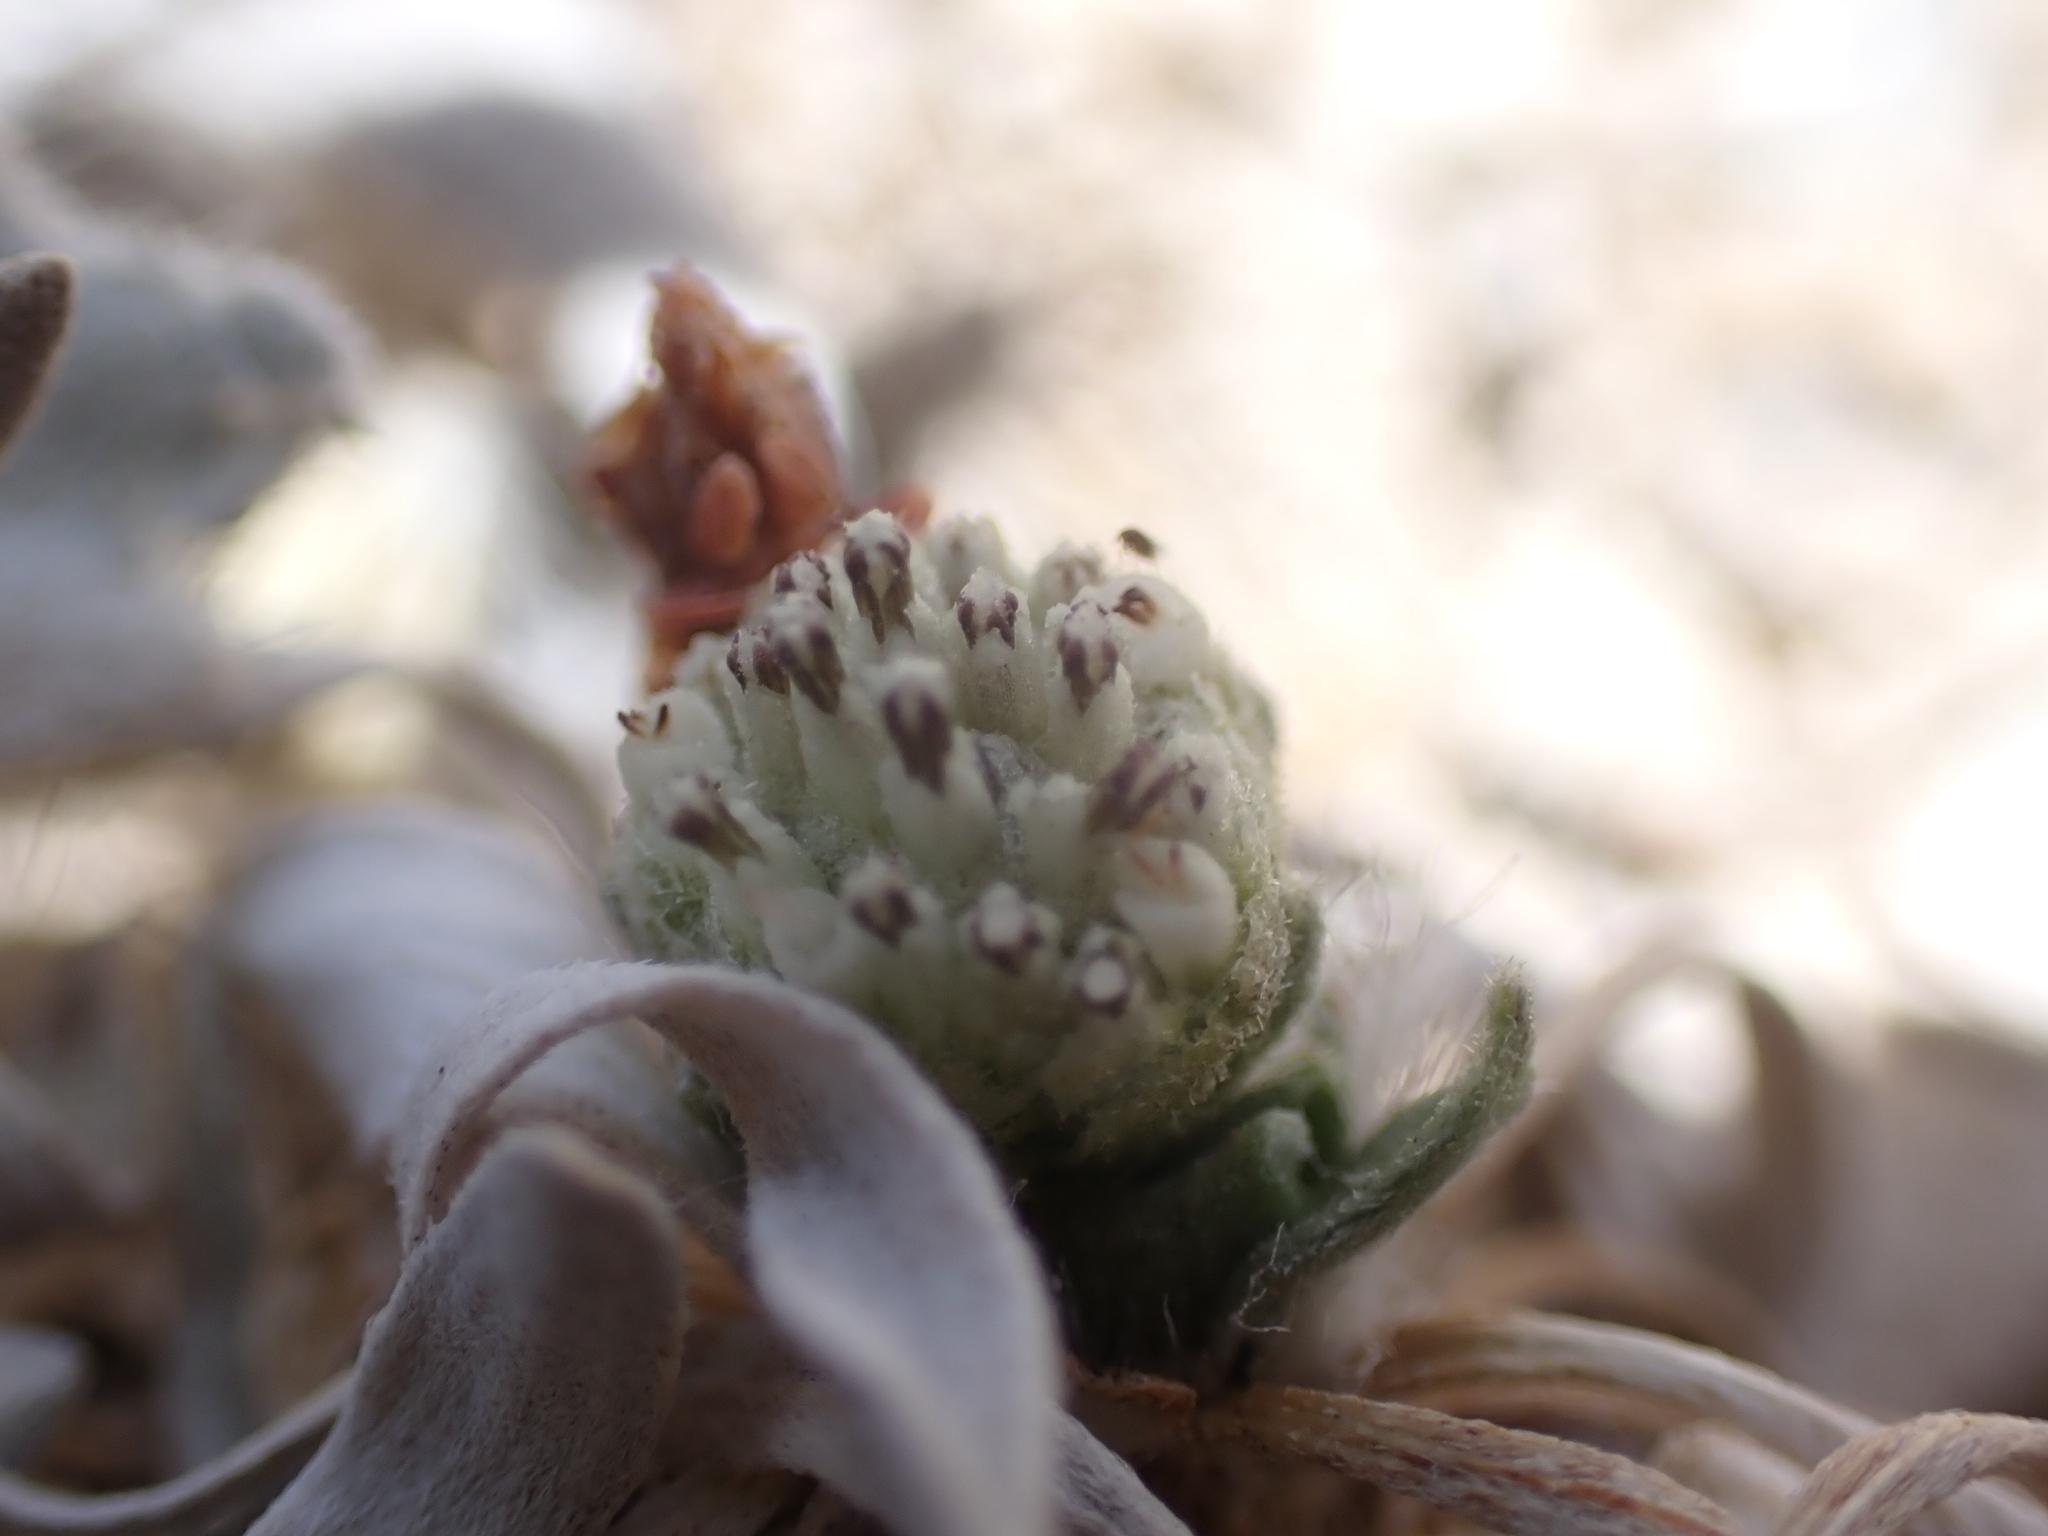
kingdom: Plantae
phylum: Tracheophyta
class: Magnoliopsida
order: Asterales
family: Asteraceae
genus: Parthenium
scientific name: Parthenium tetraneuris
